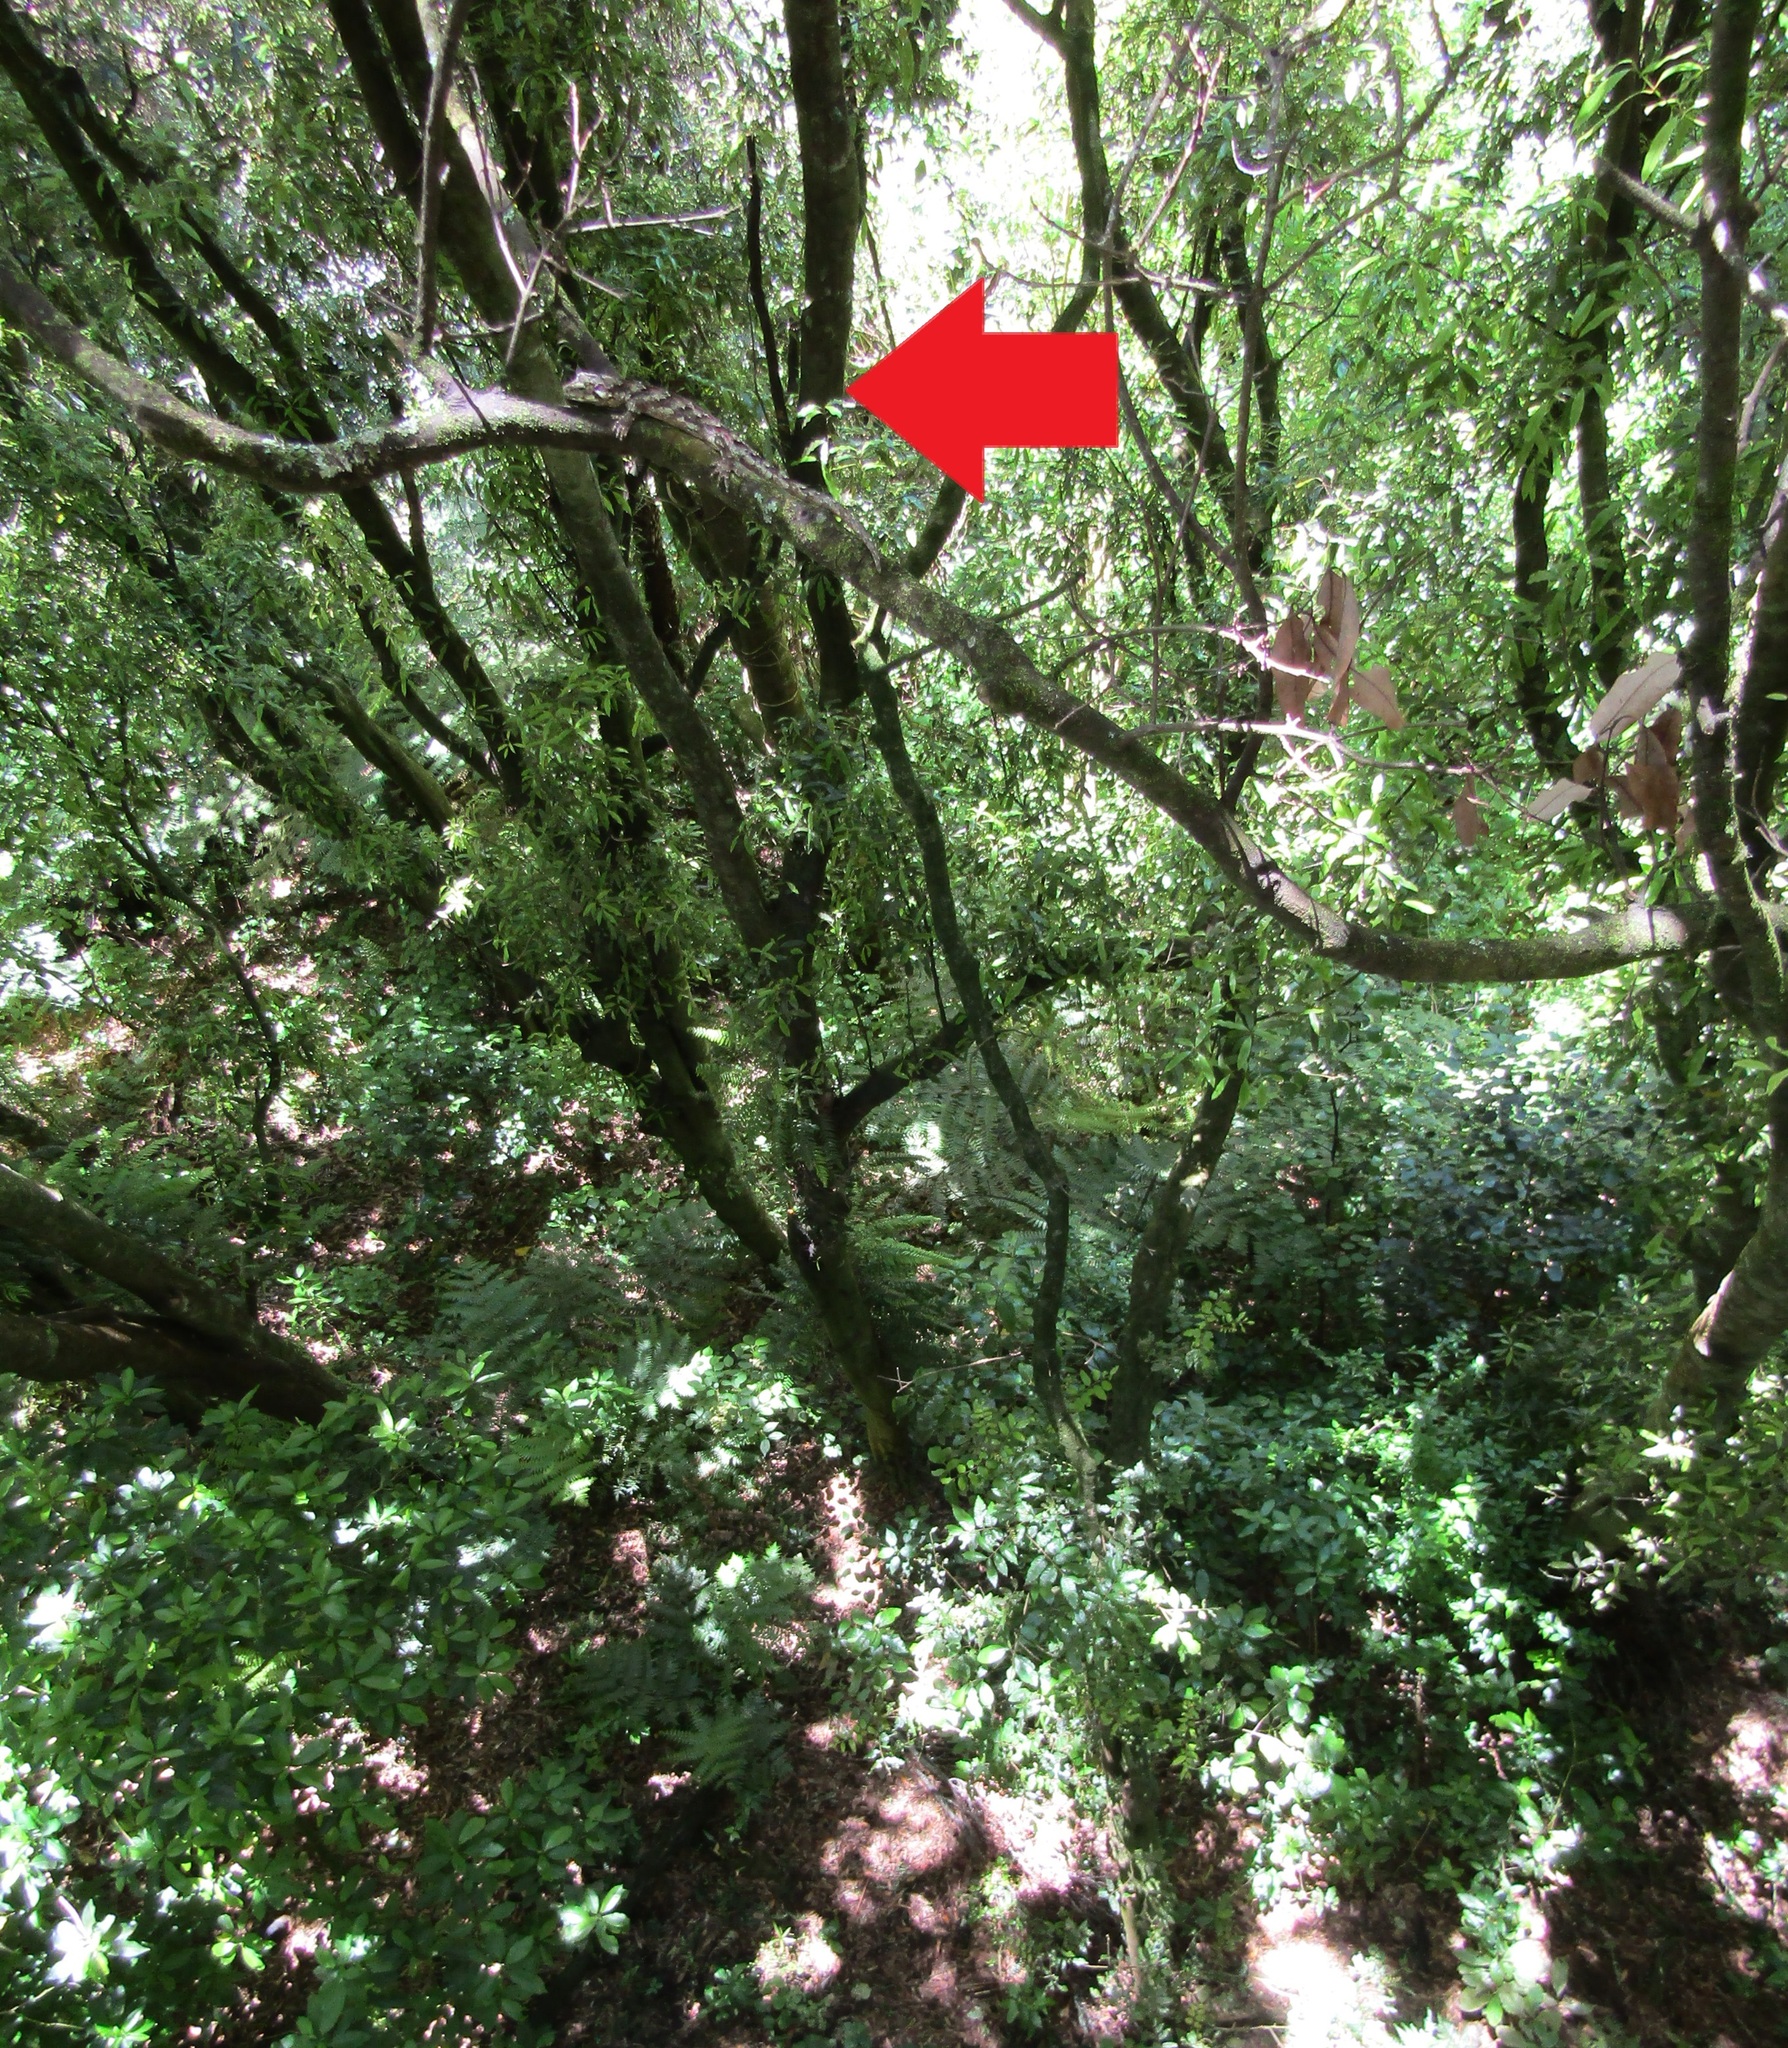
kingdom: Animalia
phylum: Chordata
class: Squamata
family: Diplodactylidae
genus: Mokopirirakau
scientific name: Mokopirirakau
